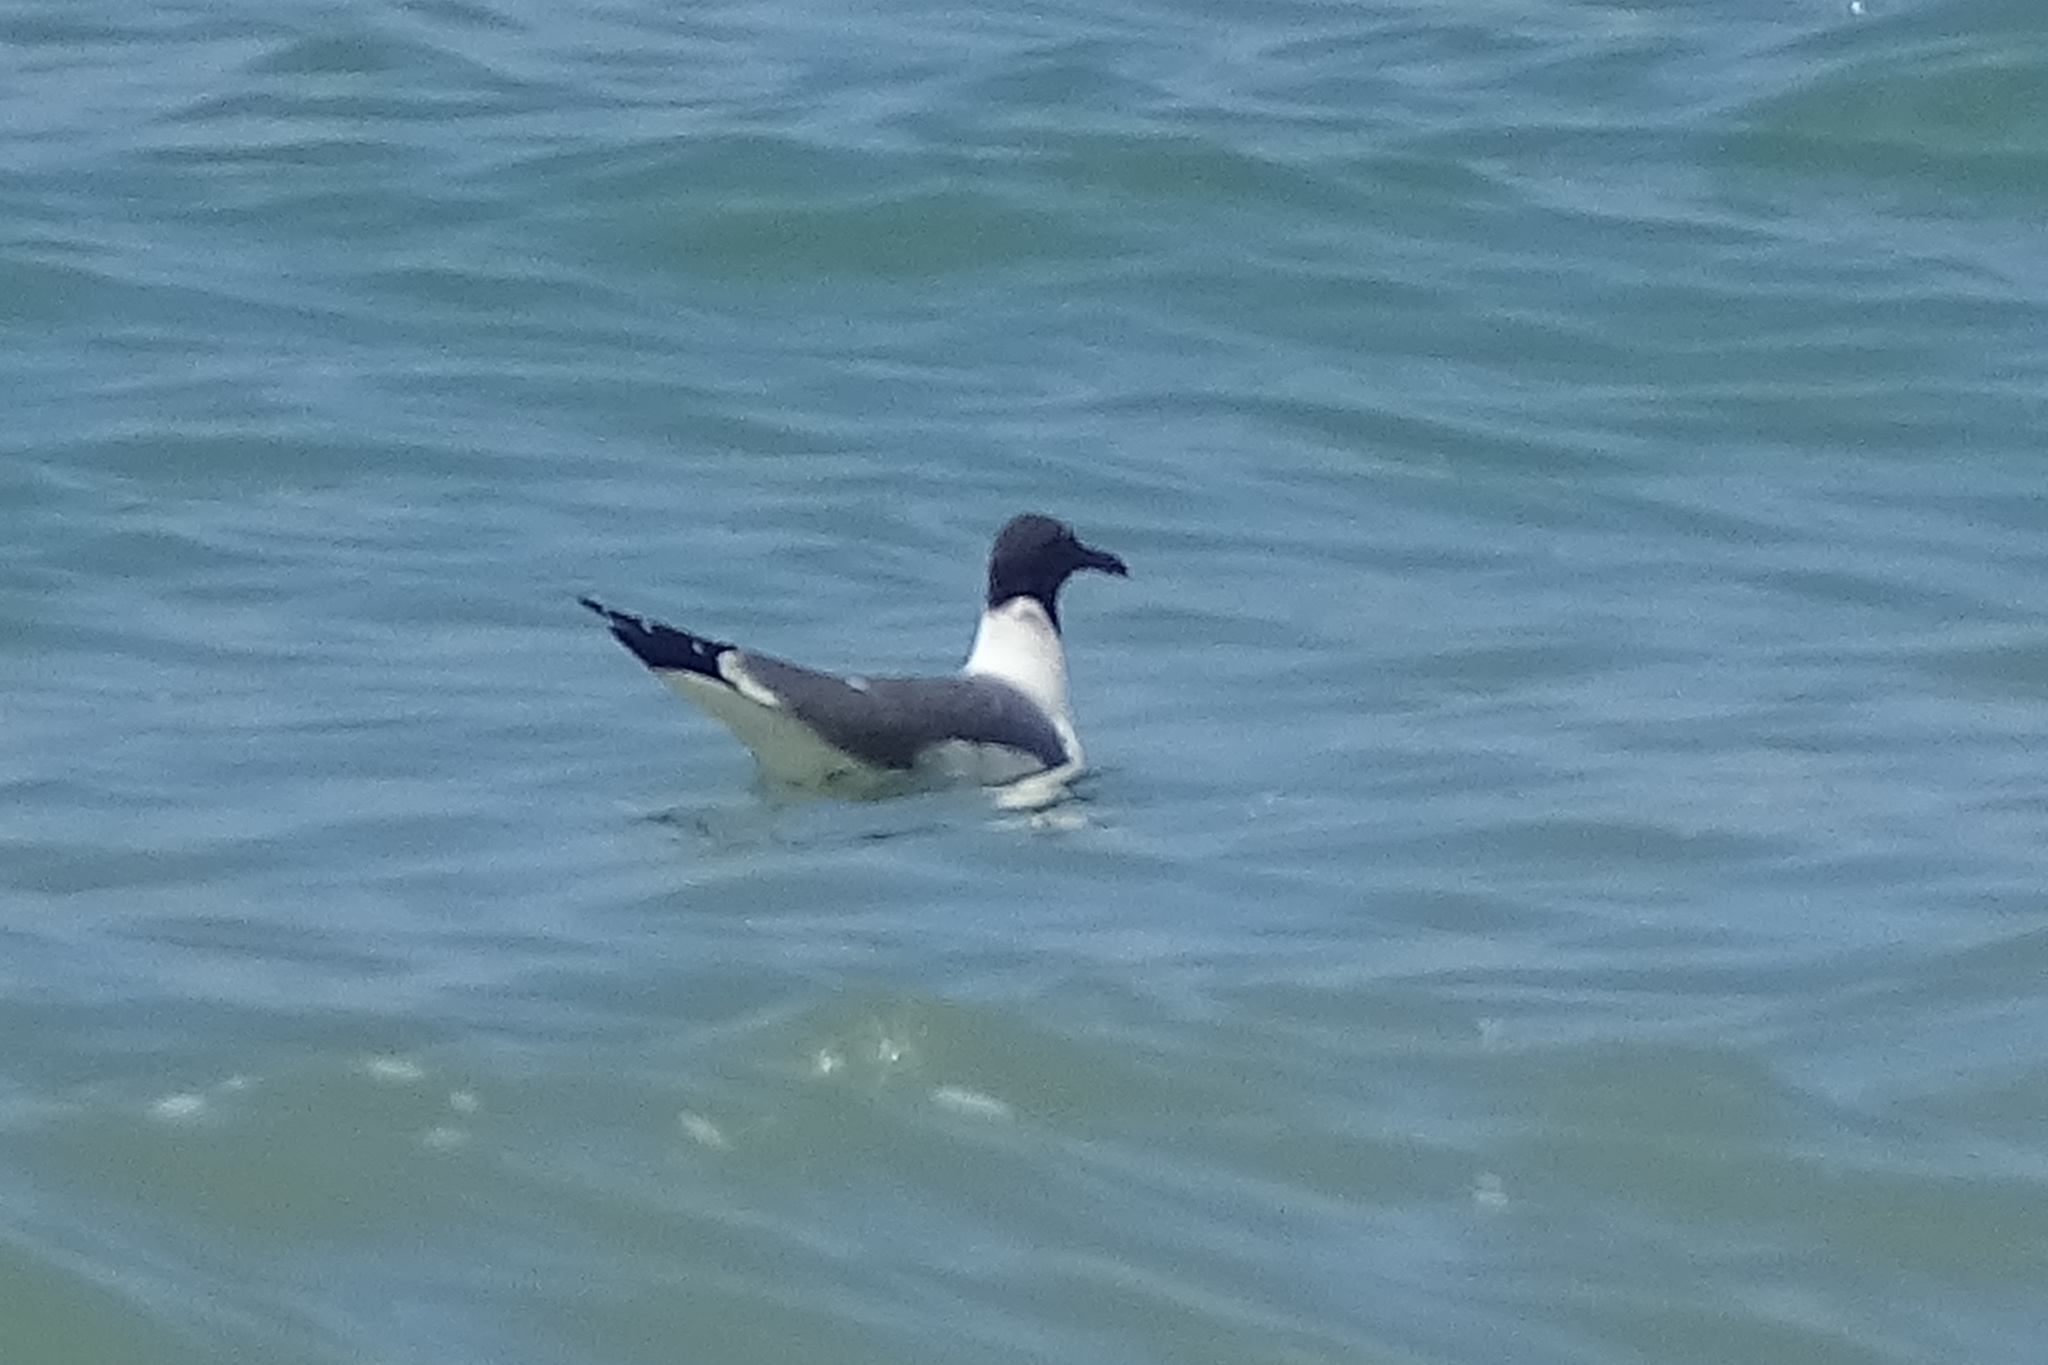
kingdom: Animalia
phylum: Chordata
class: Aves
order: Charadriiformes
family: Laridae
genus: Leucophaeus
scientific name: Leucophaeus atricilla
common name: Laughing gull
